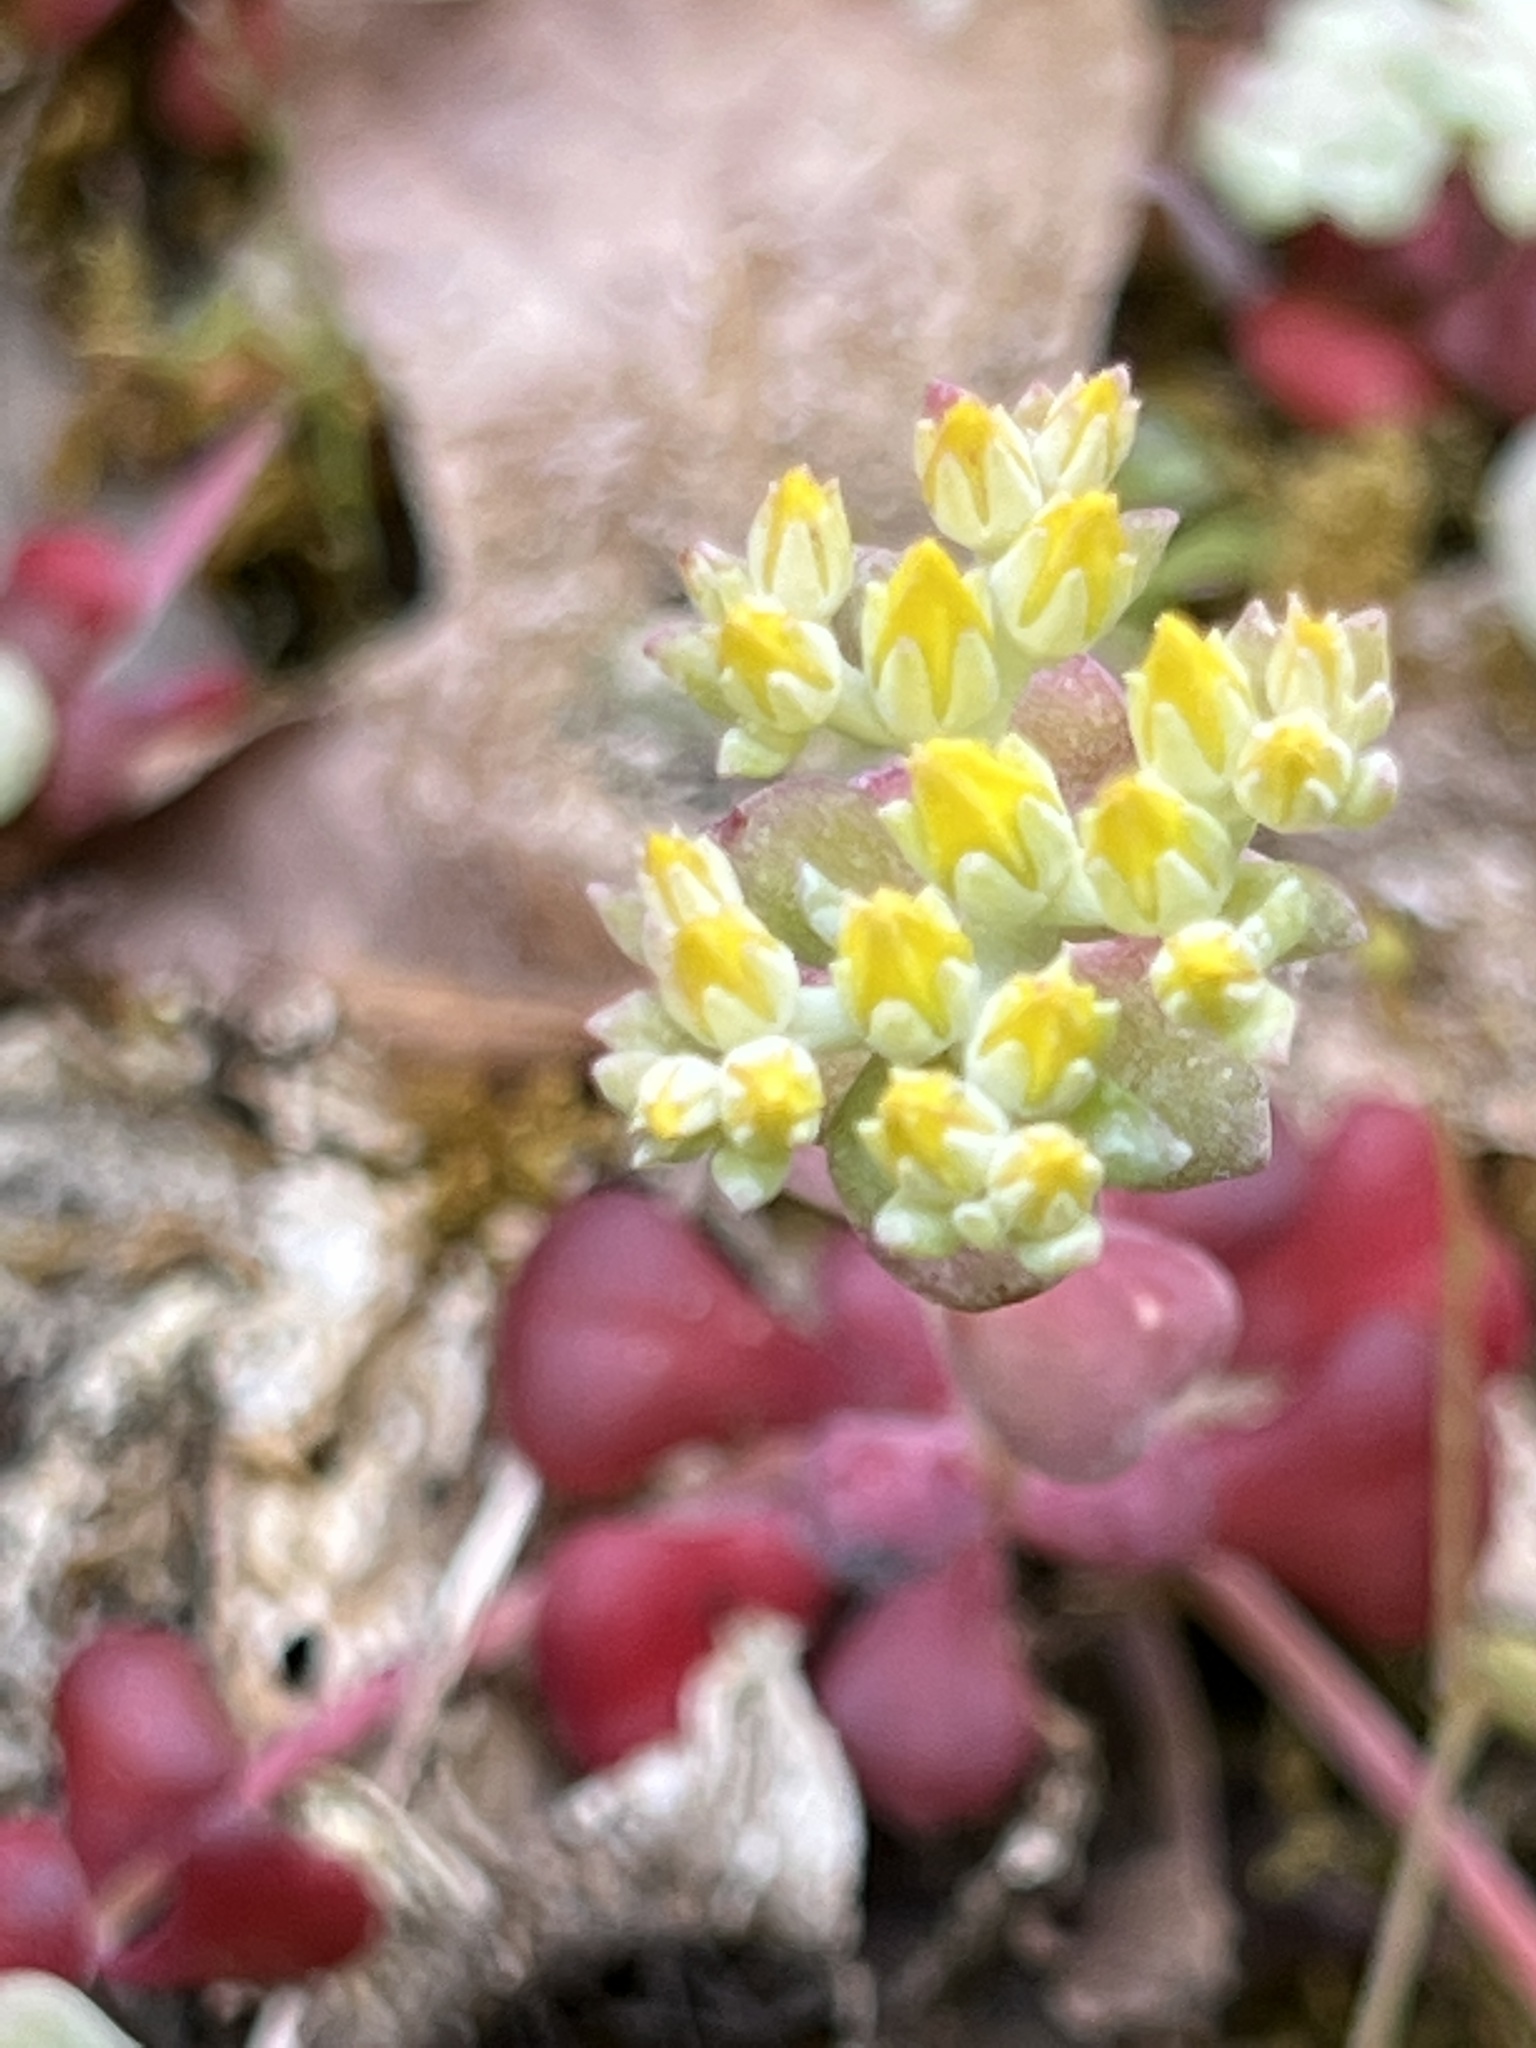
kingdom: Plantae
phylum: Tracheophyta
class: Magnoliopsida
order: Saxifragales
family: Crassulaceae
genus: Sedum
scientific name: Sedum spathulifolium
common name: Colorado stonecrop
